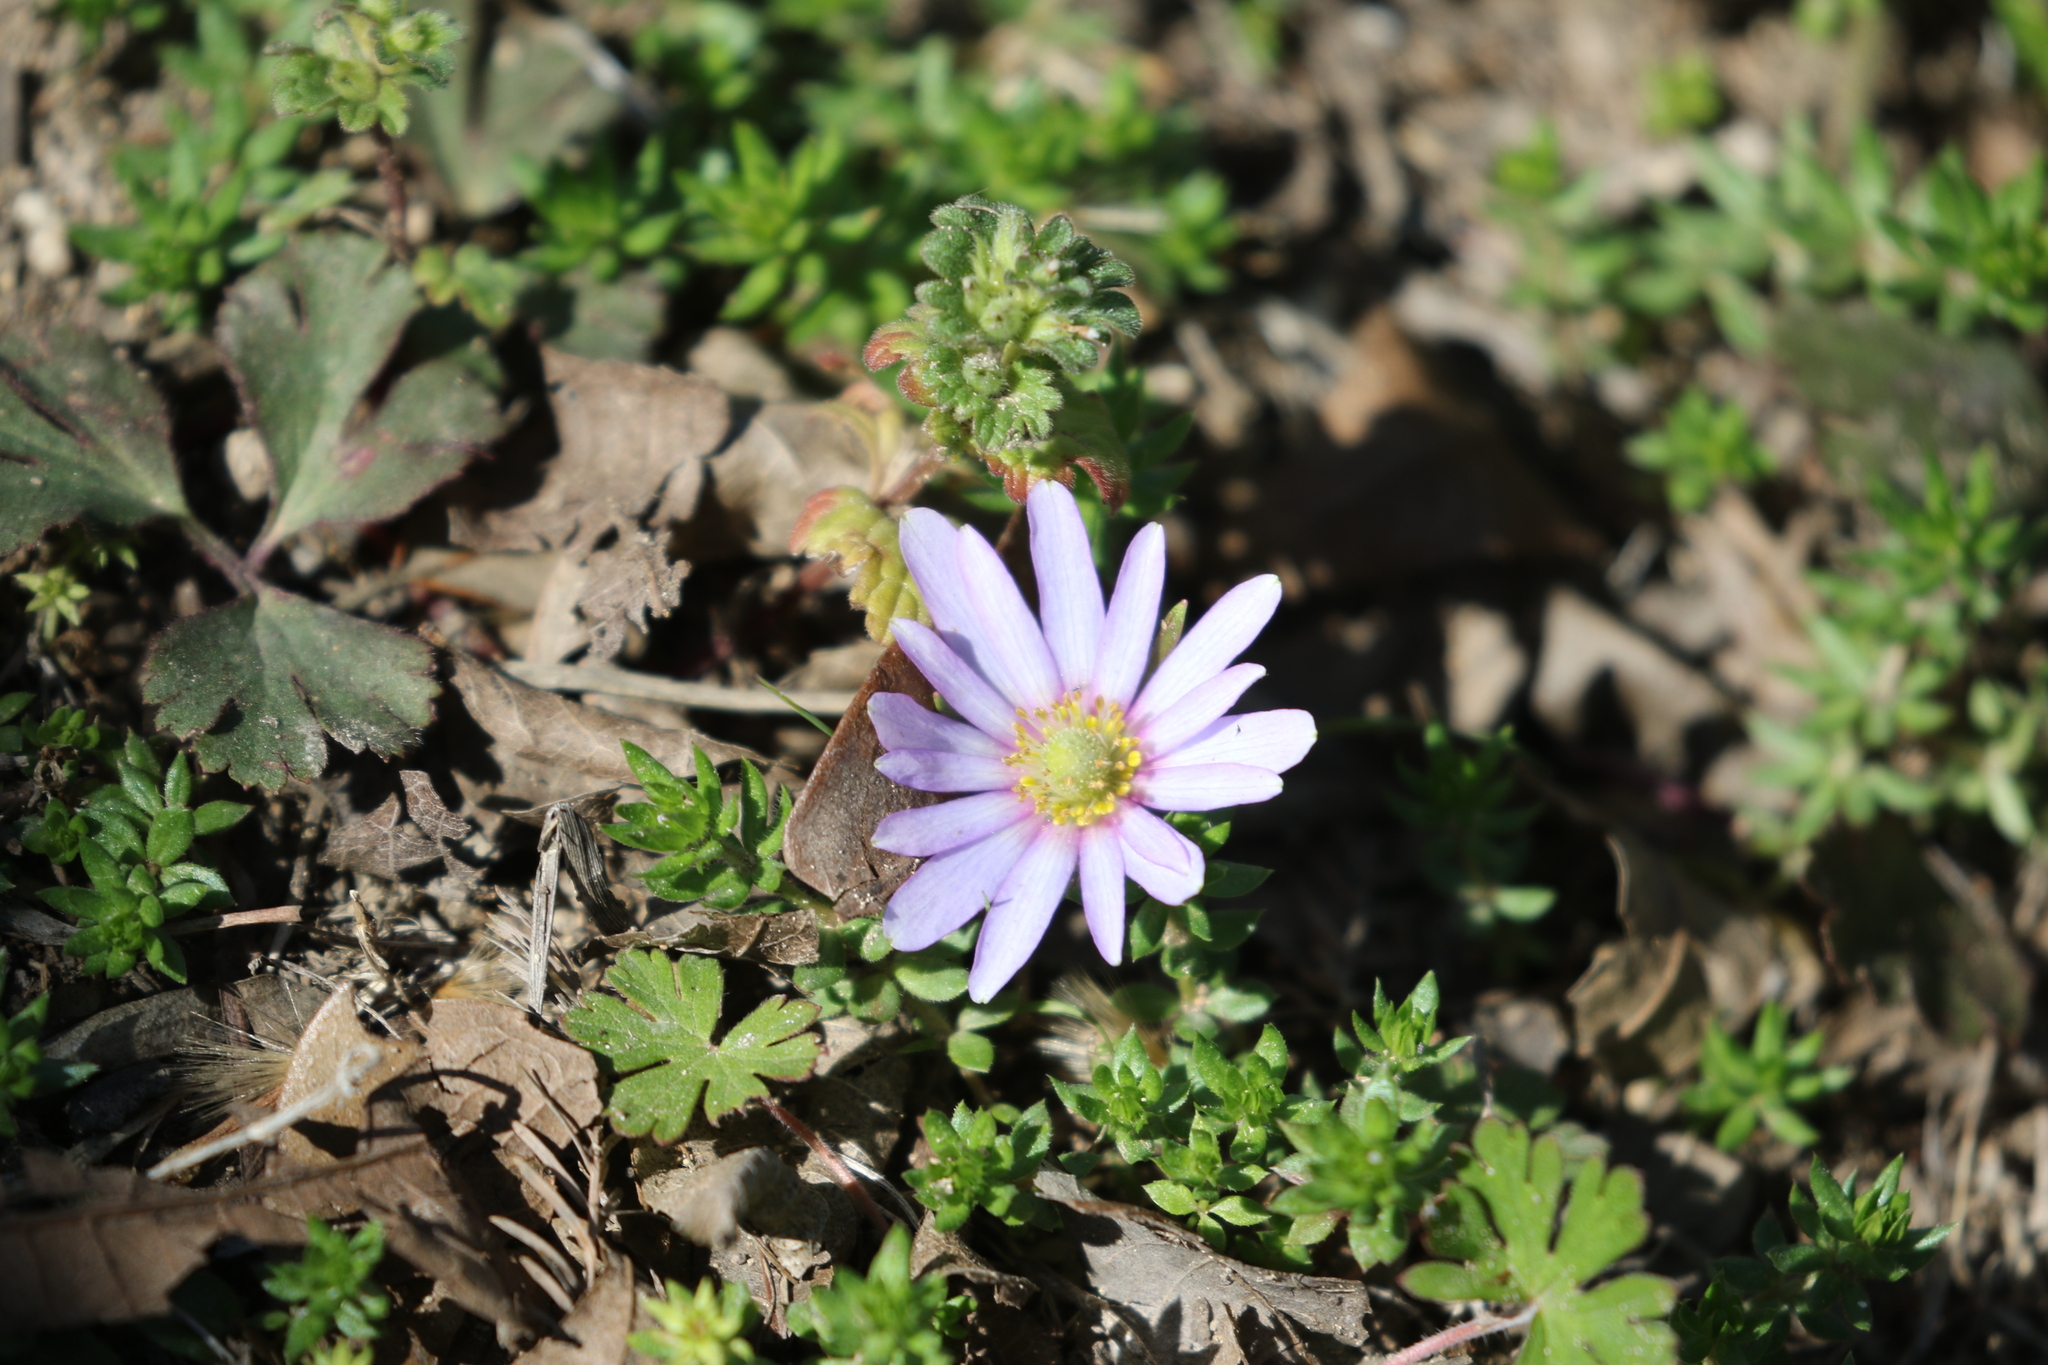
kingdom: Plantae
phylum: Tracheophyta
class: Magnoliopsida
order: Ranunculales
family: Ranunculaceae
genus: Anemone
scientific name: Anemone berlandieri
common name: Ten-petal anemone
